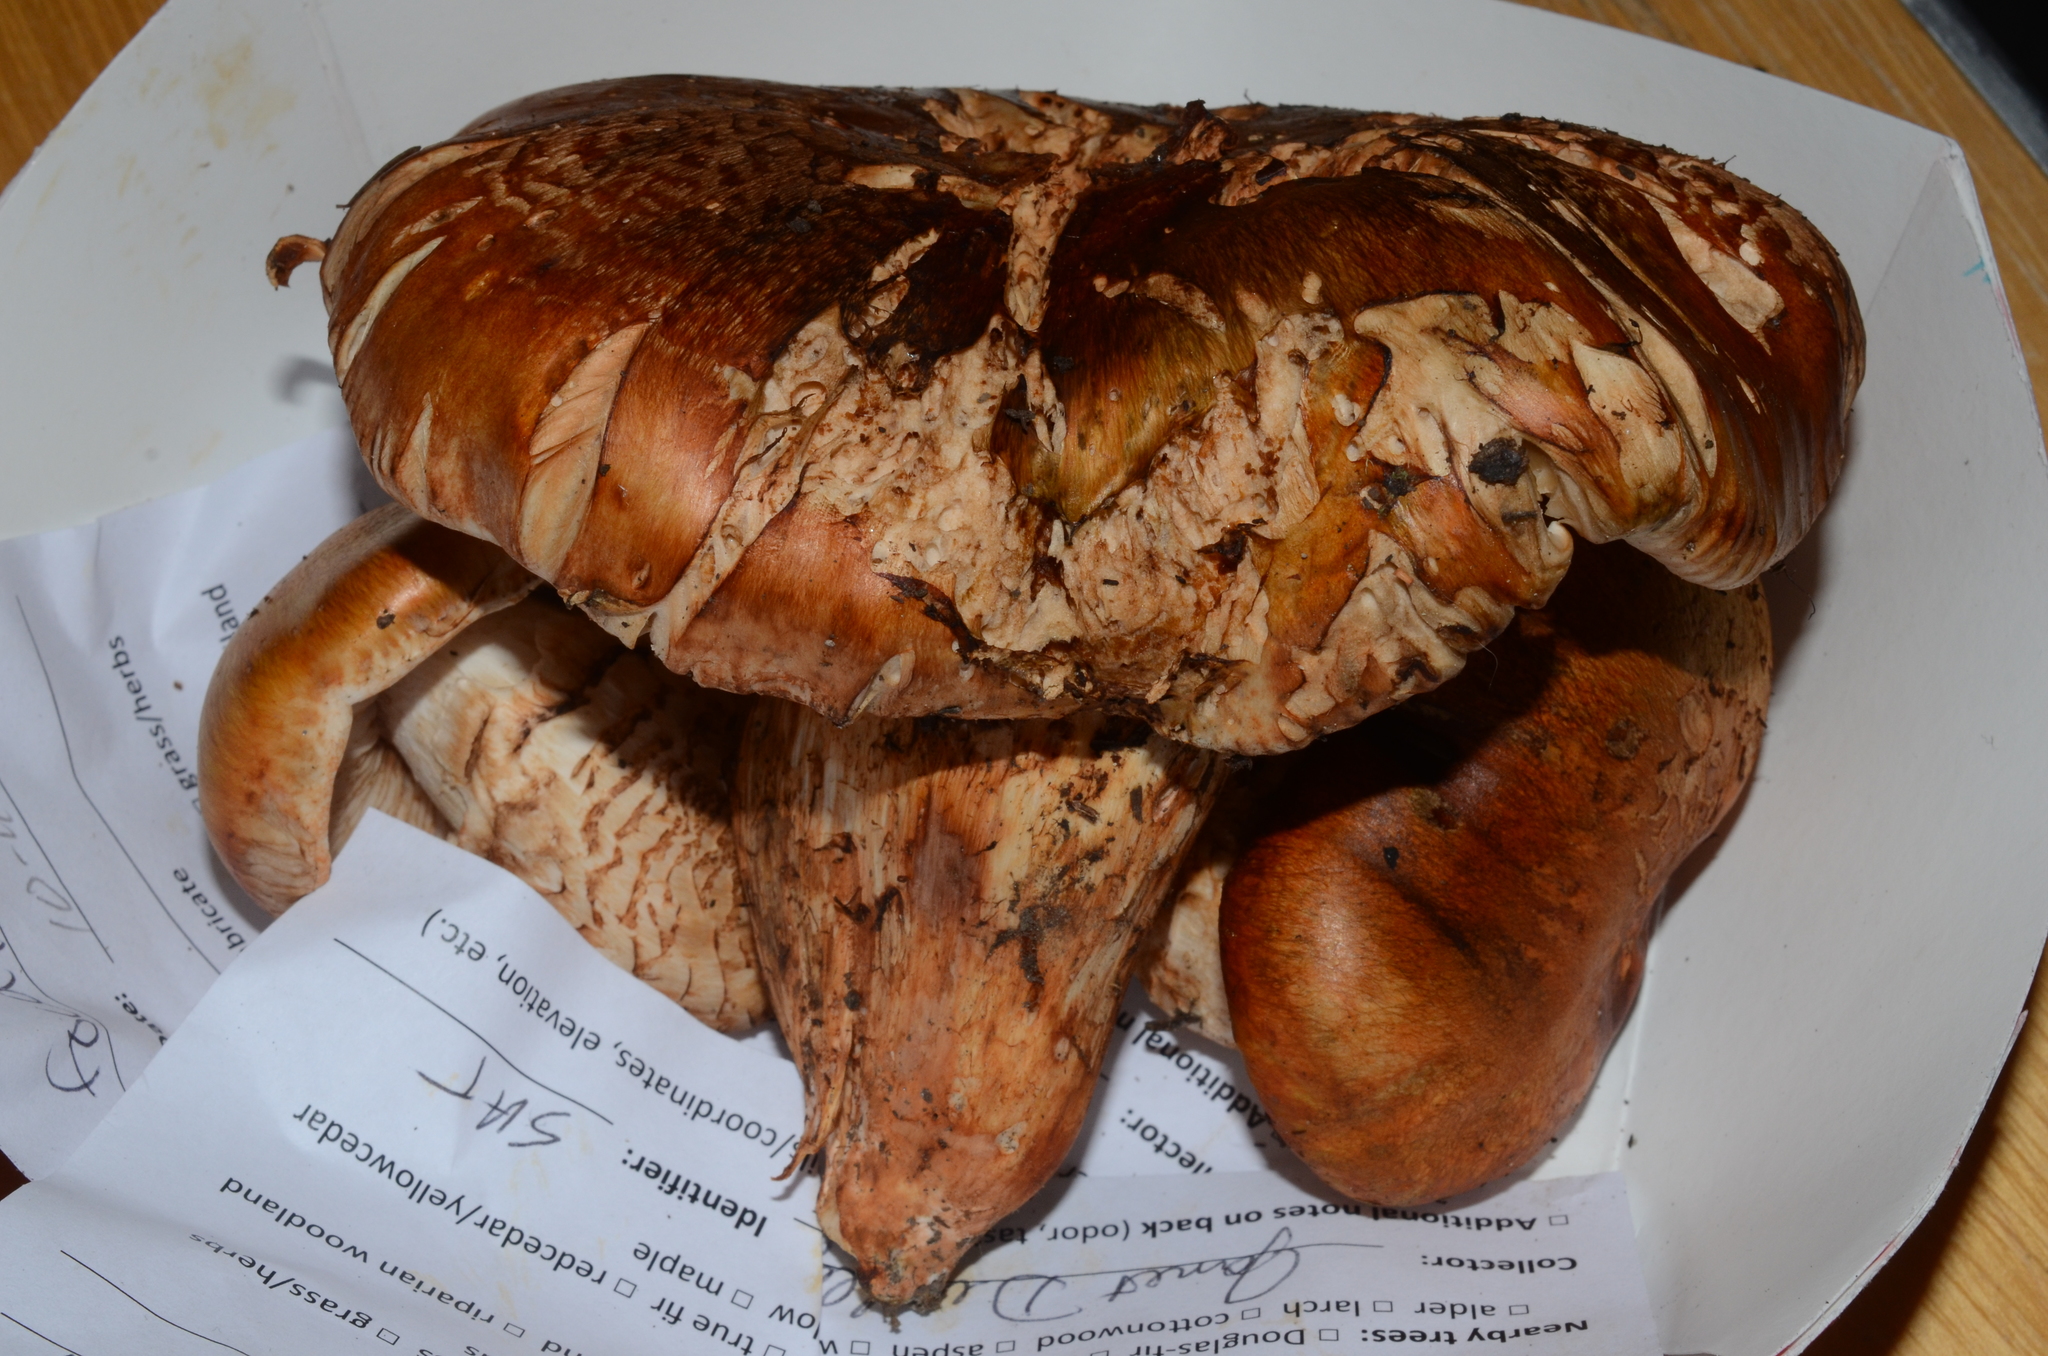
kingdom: Fungi
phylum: Basidiomycota
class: Agaricomycetes
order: Agaricales
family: Tricholomataceae
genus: Tricholoma
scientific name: Tricholoma focale
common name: Booted knight
